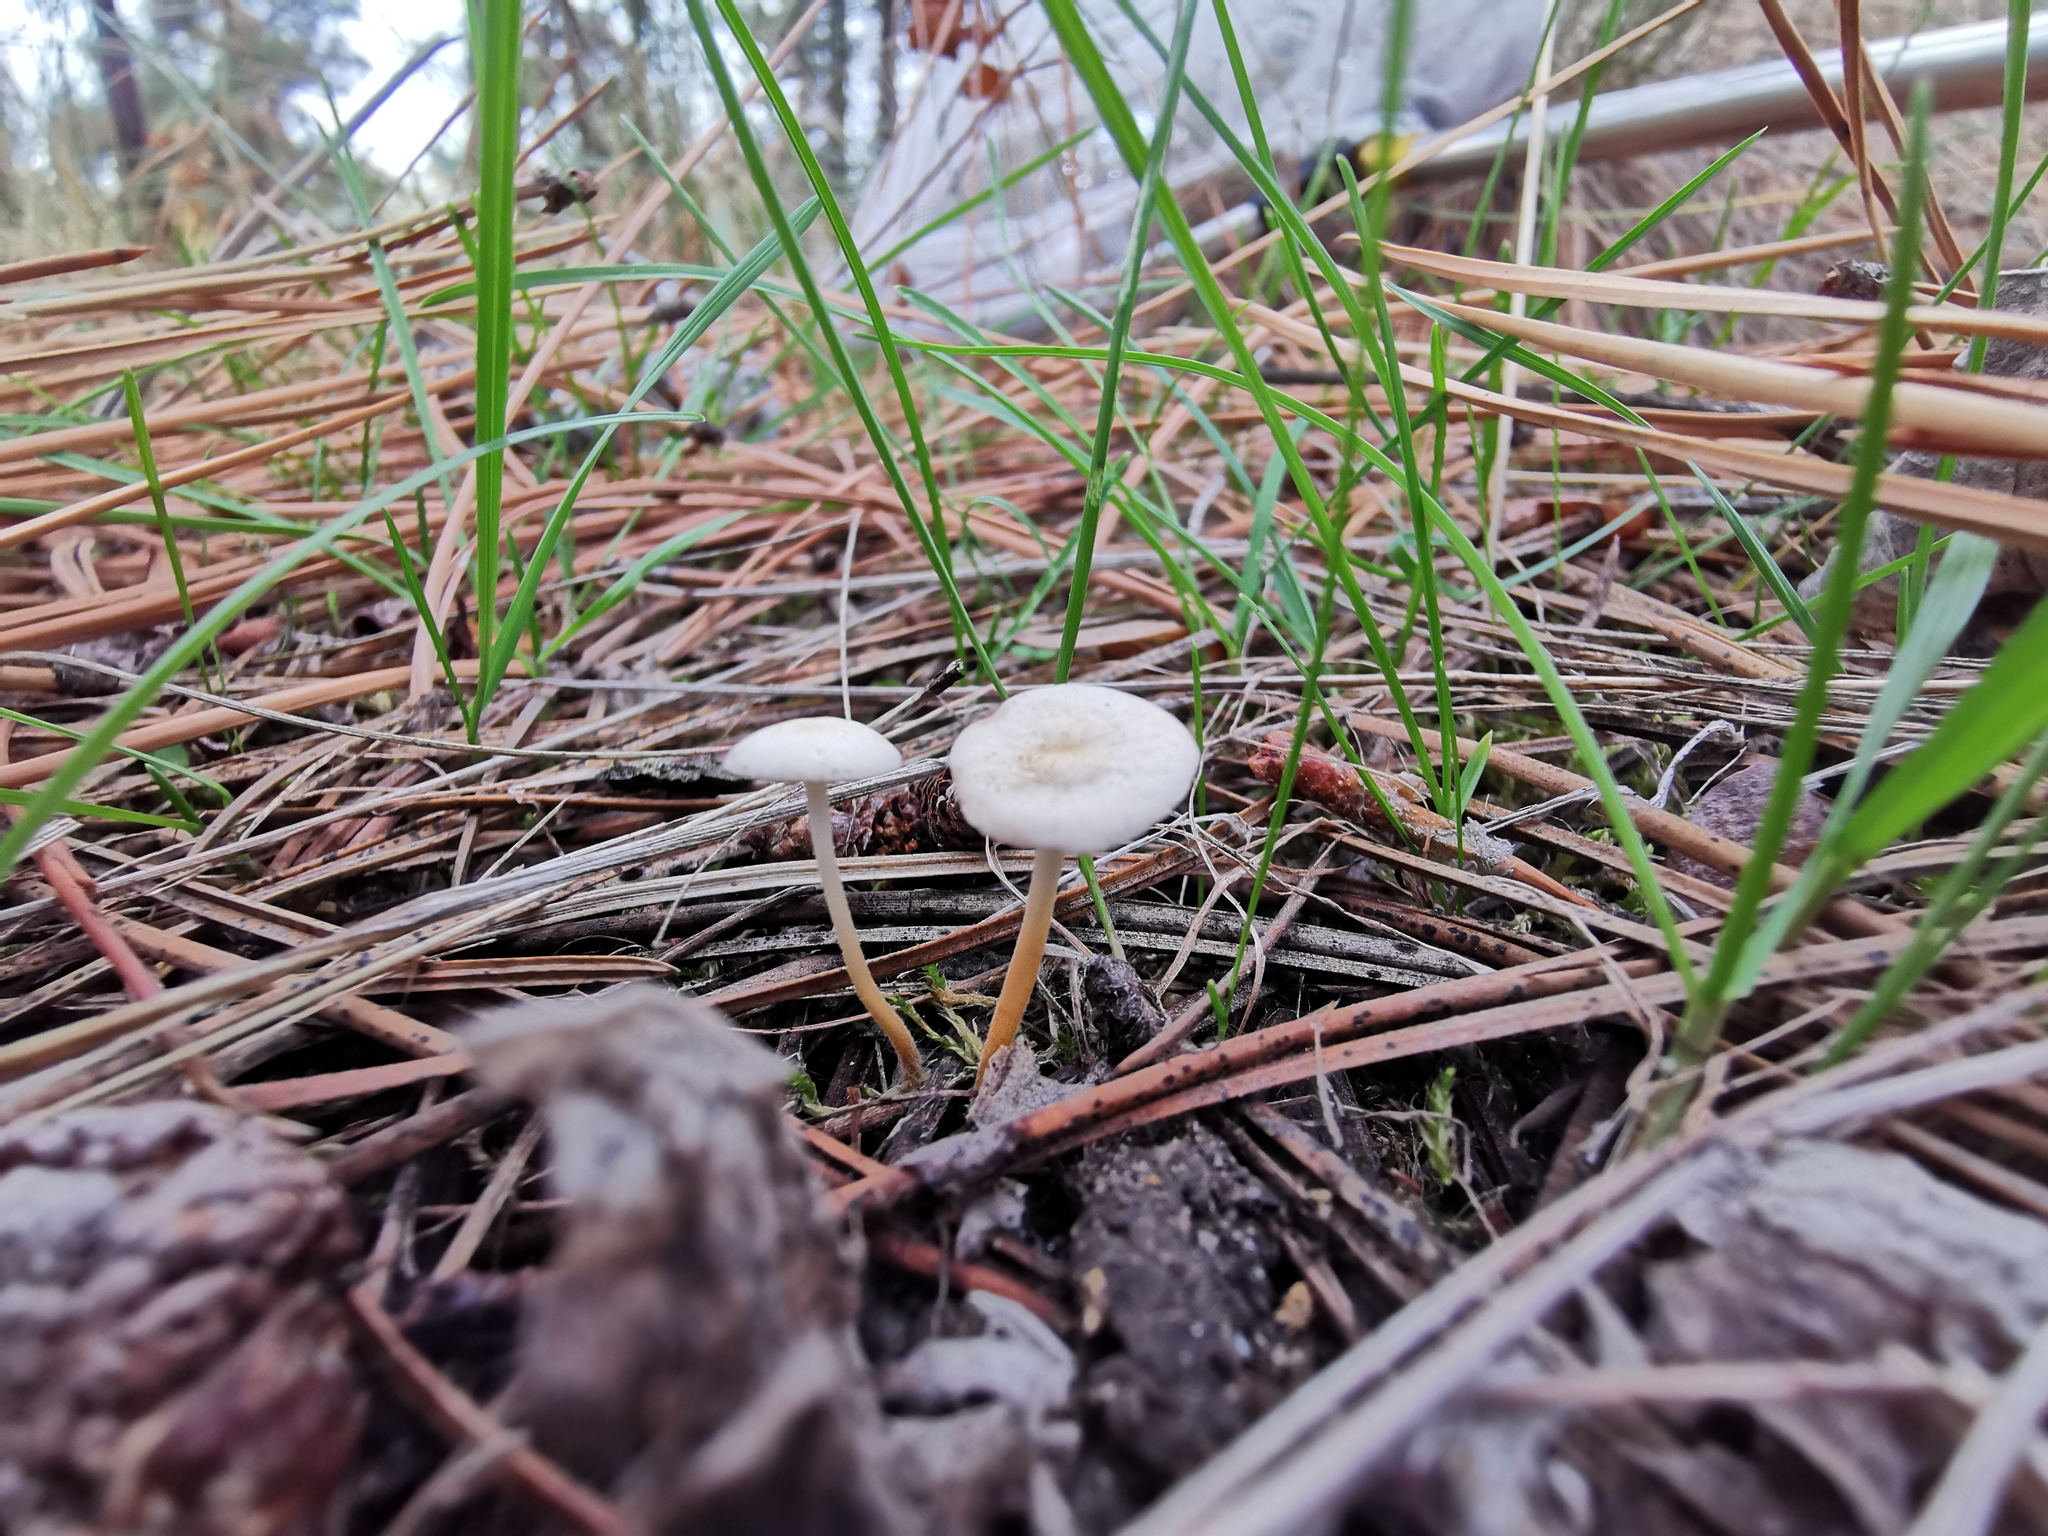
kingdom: Fungi
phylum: Basidiomycota
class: Agaricomycetes
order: Agaricales
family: Physalacriaceae
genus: Strobilurus
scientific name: Strobilurus trullisatus
